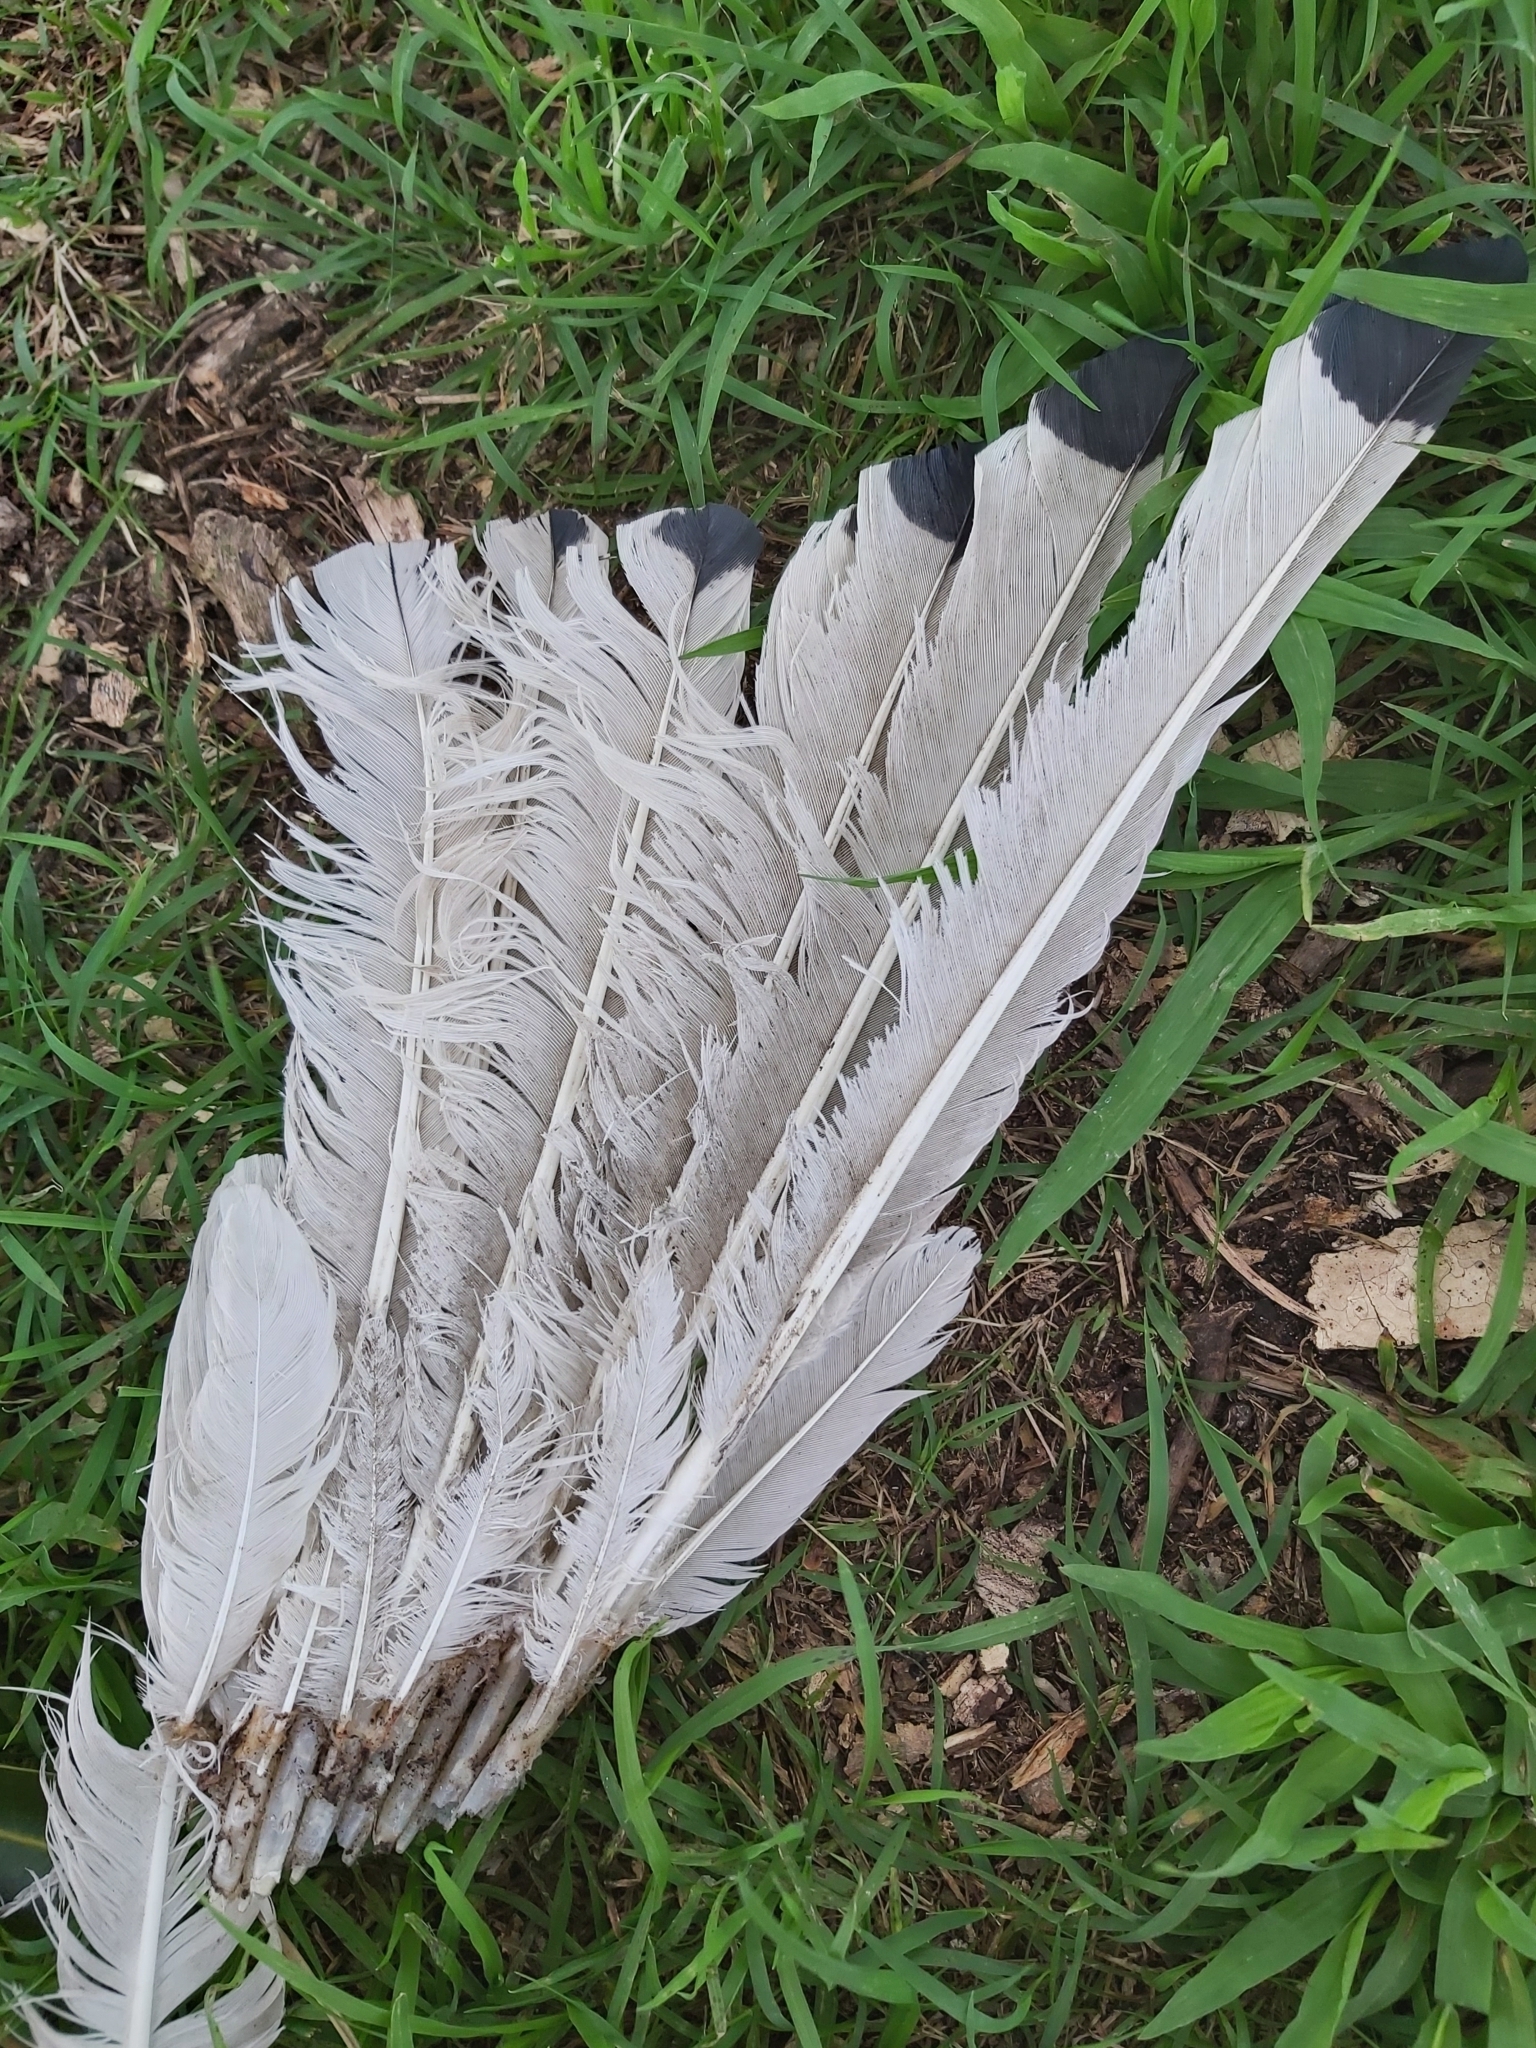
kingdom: Animalia
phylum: Chordata
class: Aves
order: Pelecaniformes
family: Threskiornithidae
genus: Threskiornis
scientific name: Threskiornis molucca
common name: Australian white ibis
